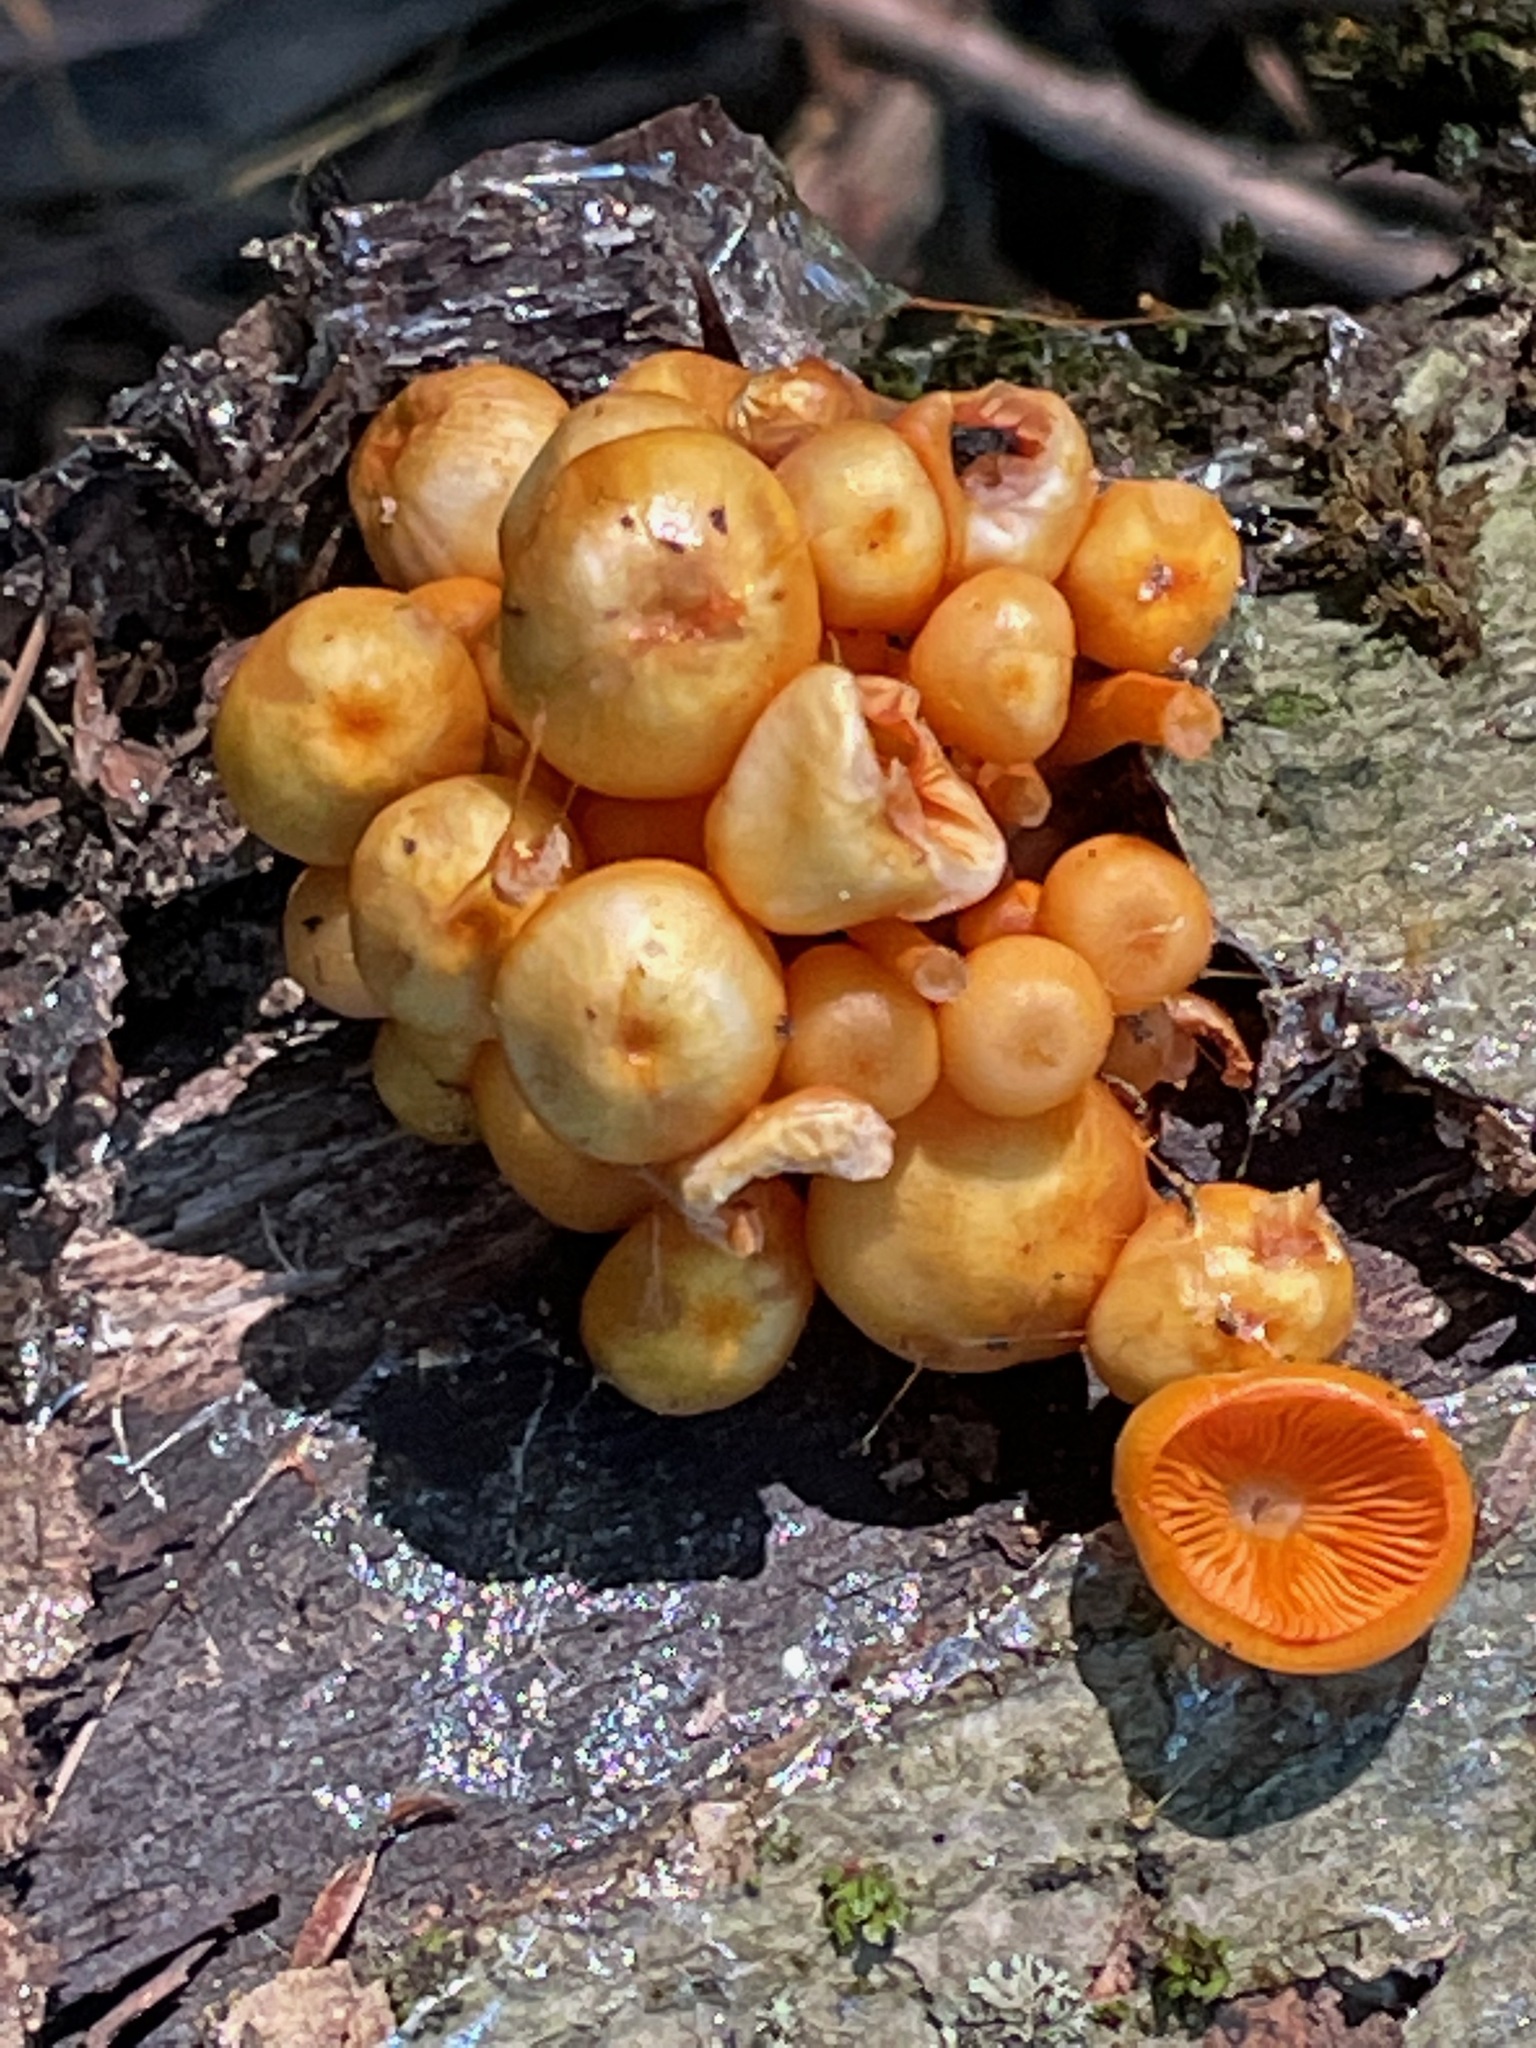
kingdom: Fungi
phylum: Basidiomycota
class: Agaricomycetes
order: Agaricales
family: Mycenaceae
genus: Mycena
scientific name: Mycena leaiana
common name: Orange mycena
